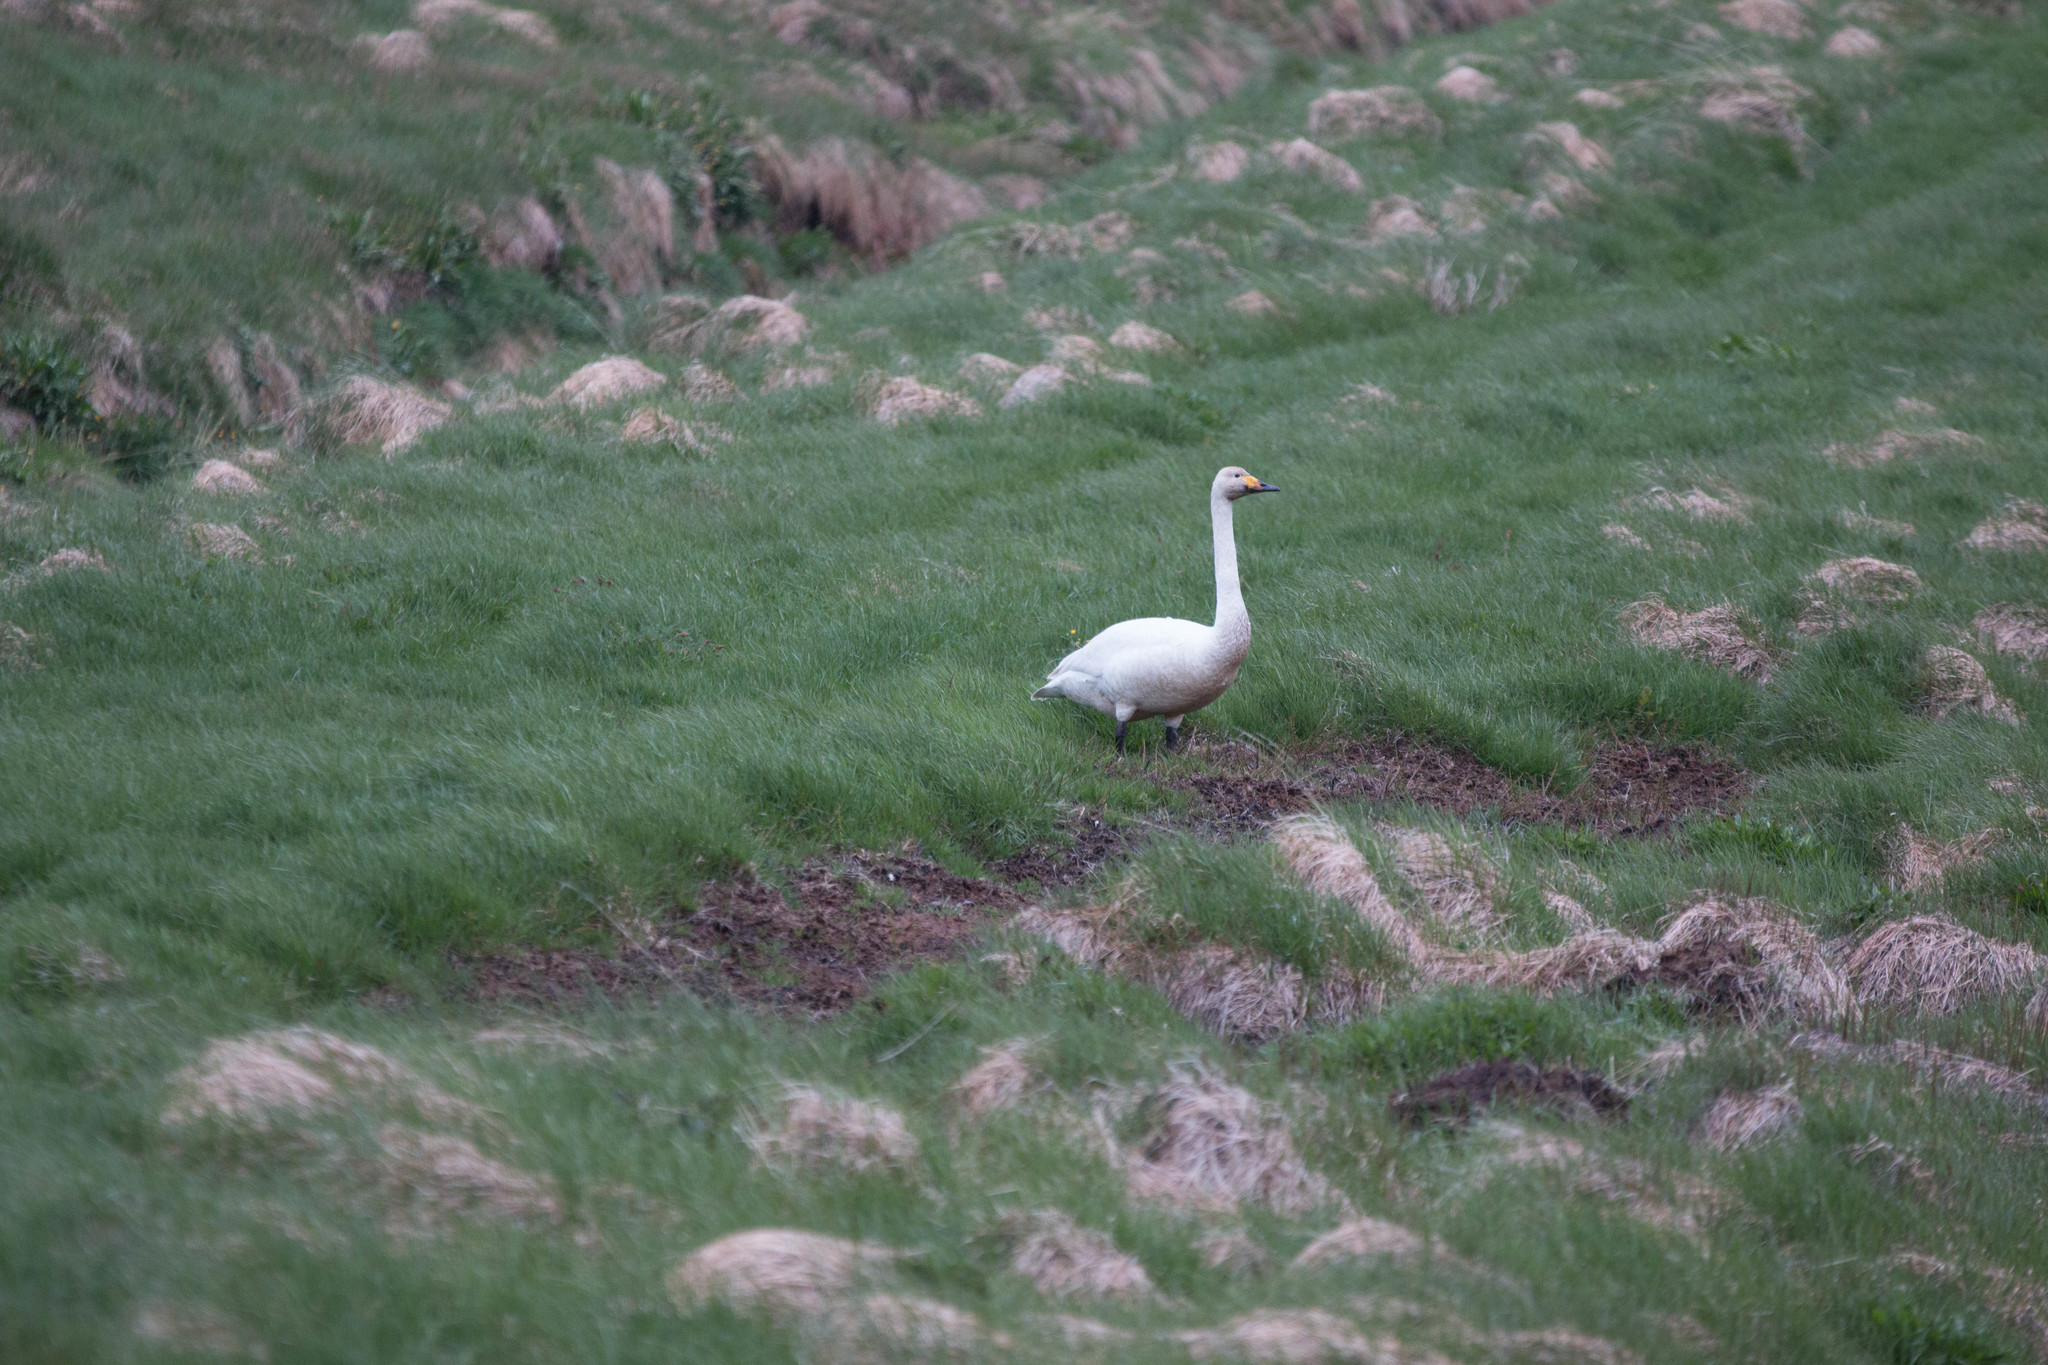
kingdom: Animalia
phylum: Chordata
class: Aves
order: Anseriformes
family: Anatidae
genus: Cygnus
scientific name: Cygnus cygnus
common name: Whooper swan
